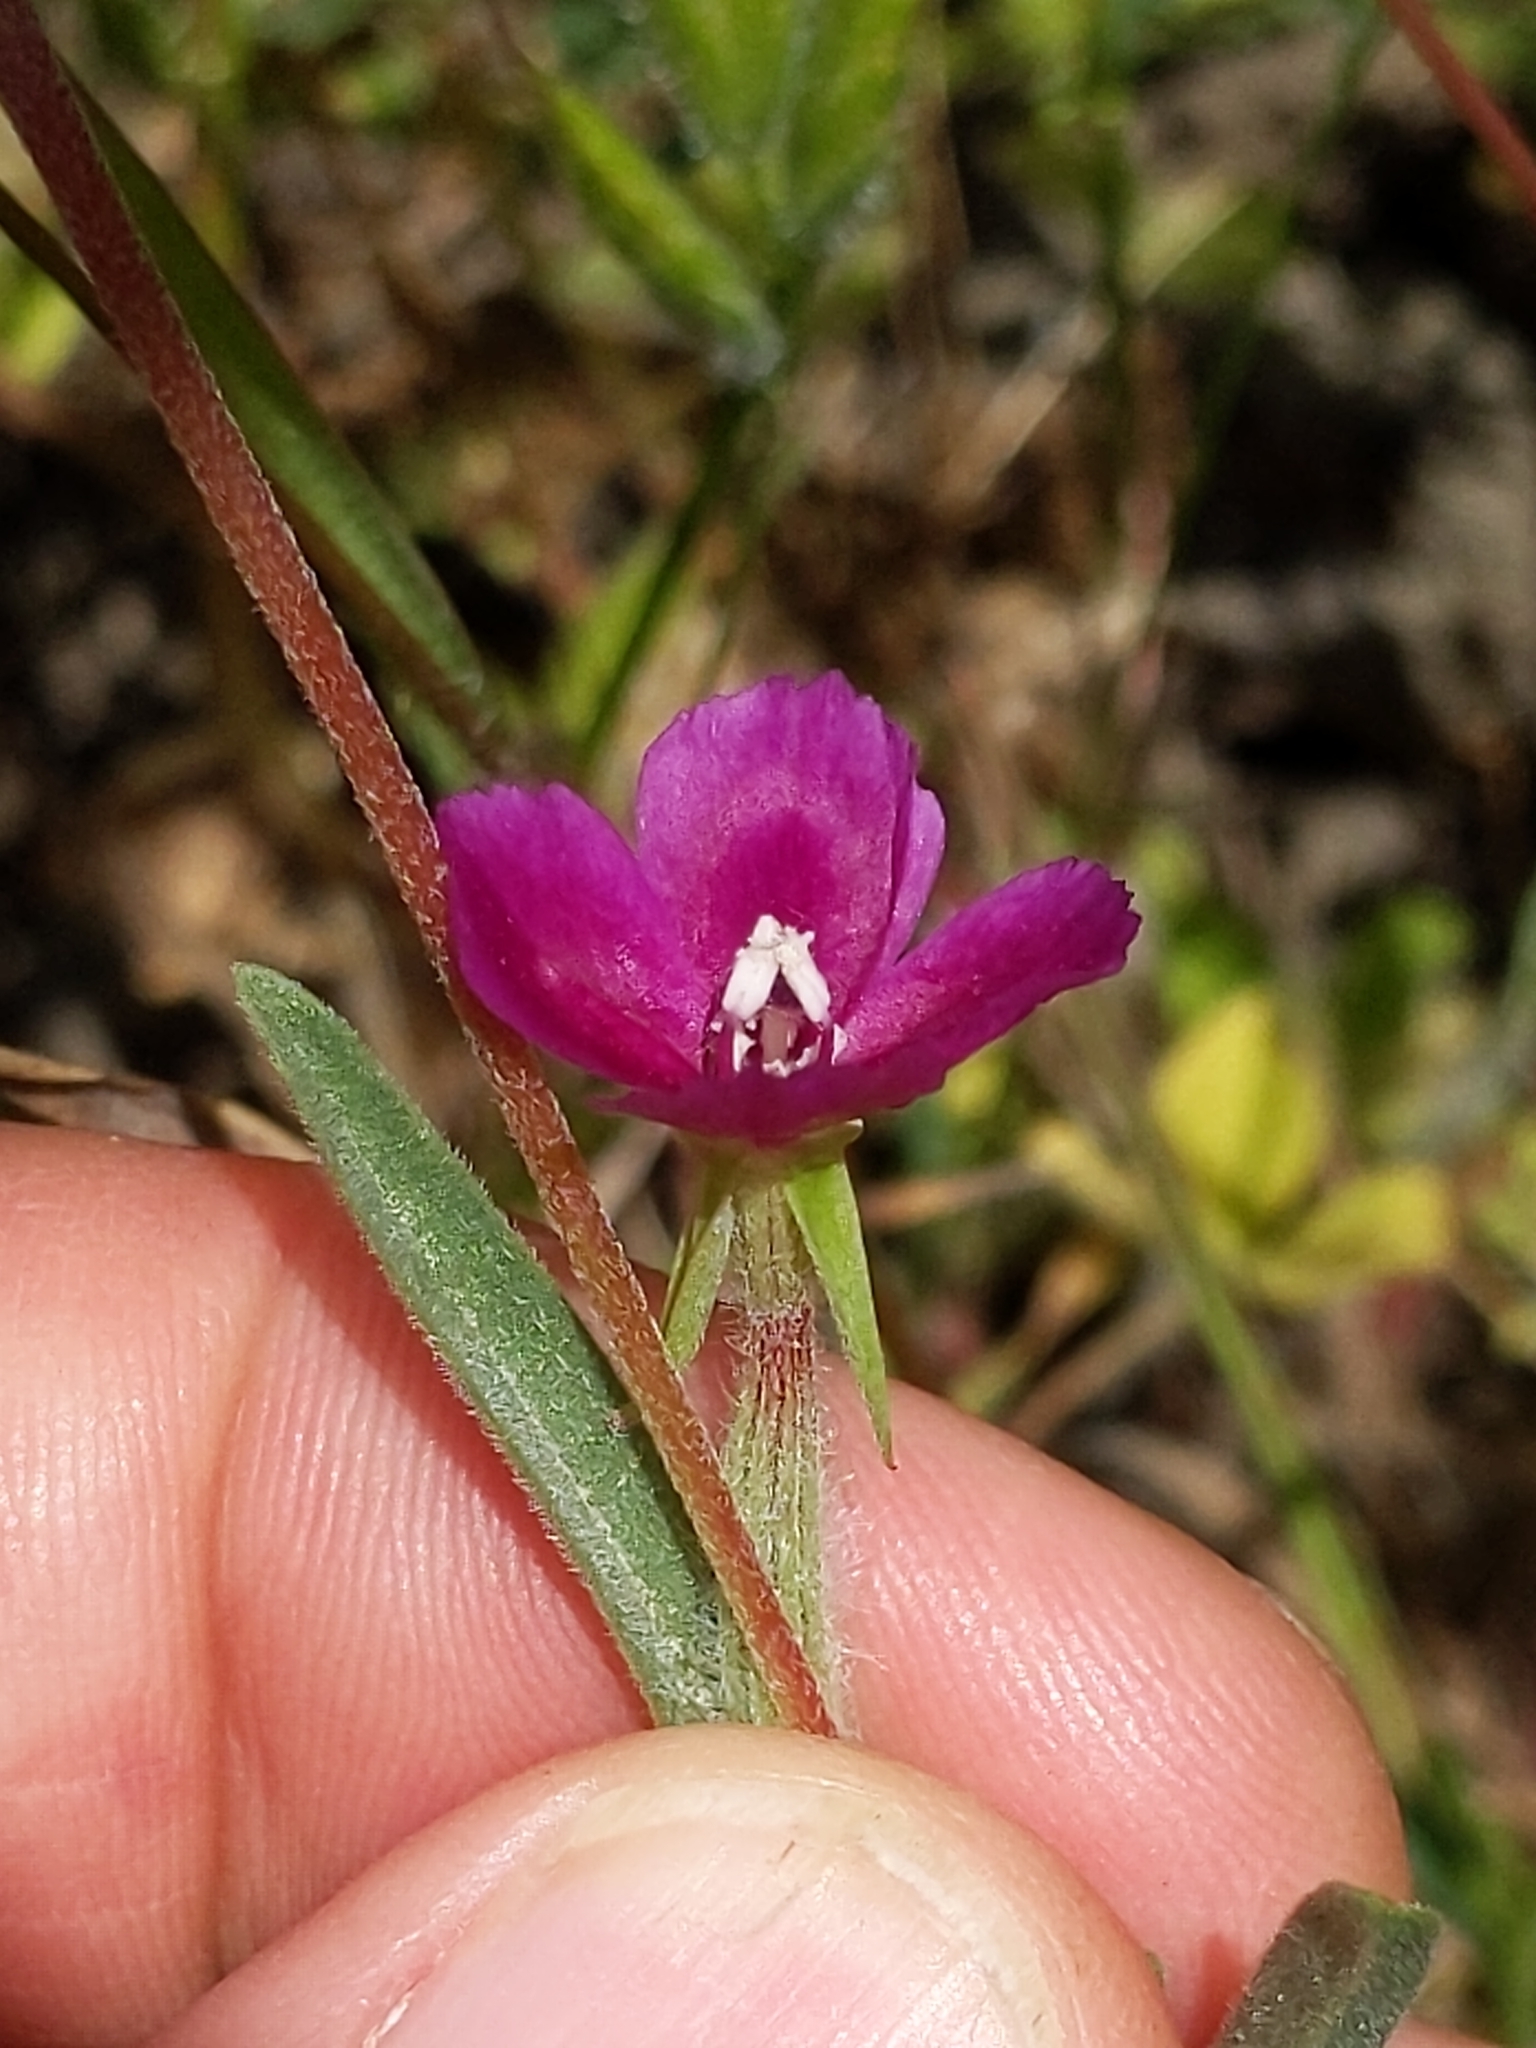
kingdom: Plantae
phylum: Tracheophyta
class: Magnoliopsida
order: Myrtales
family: Onagraceae
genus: Clarkia
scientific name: Clarkia purpurea
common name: Purple clarkia
